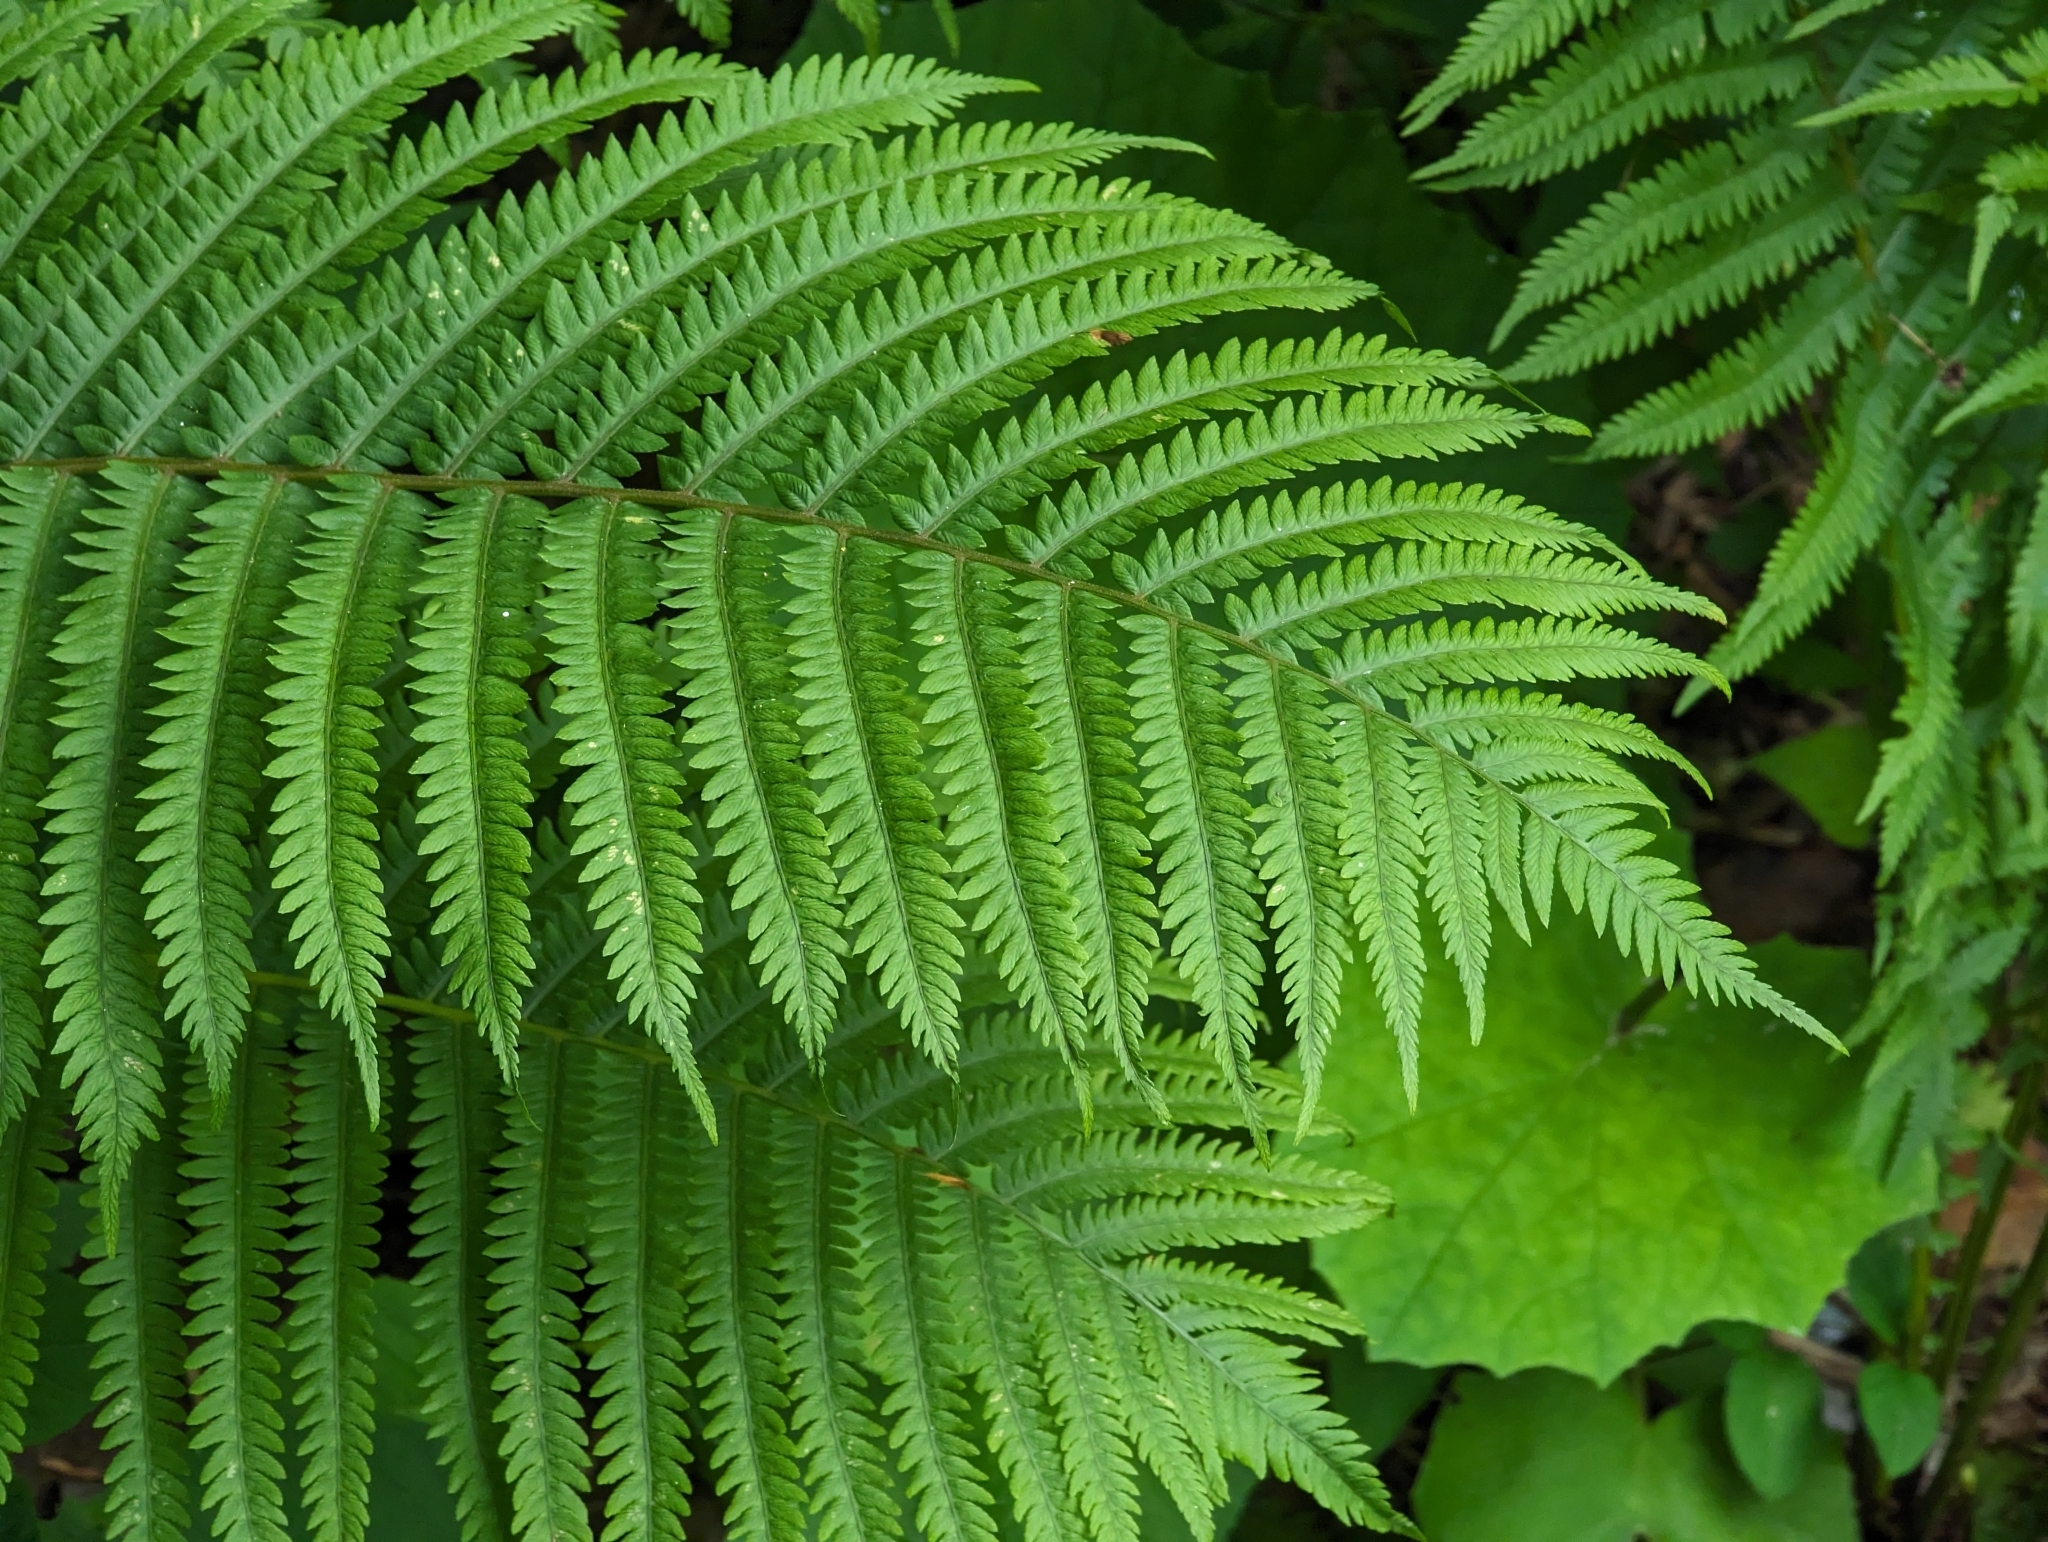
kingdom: Plantae
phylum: Tracheophyta
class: Polypodiopsida
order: Polypodiales
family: Onocleaceae
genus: Matteuccia
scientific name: Matteuccia struthiopteris
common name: Ostrich fern
